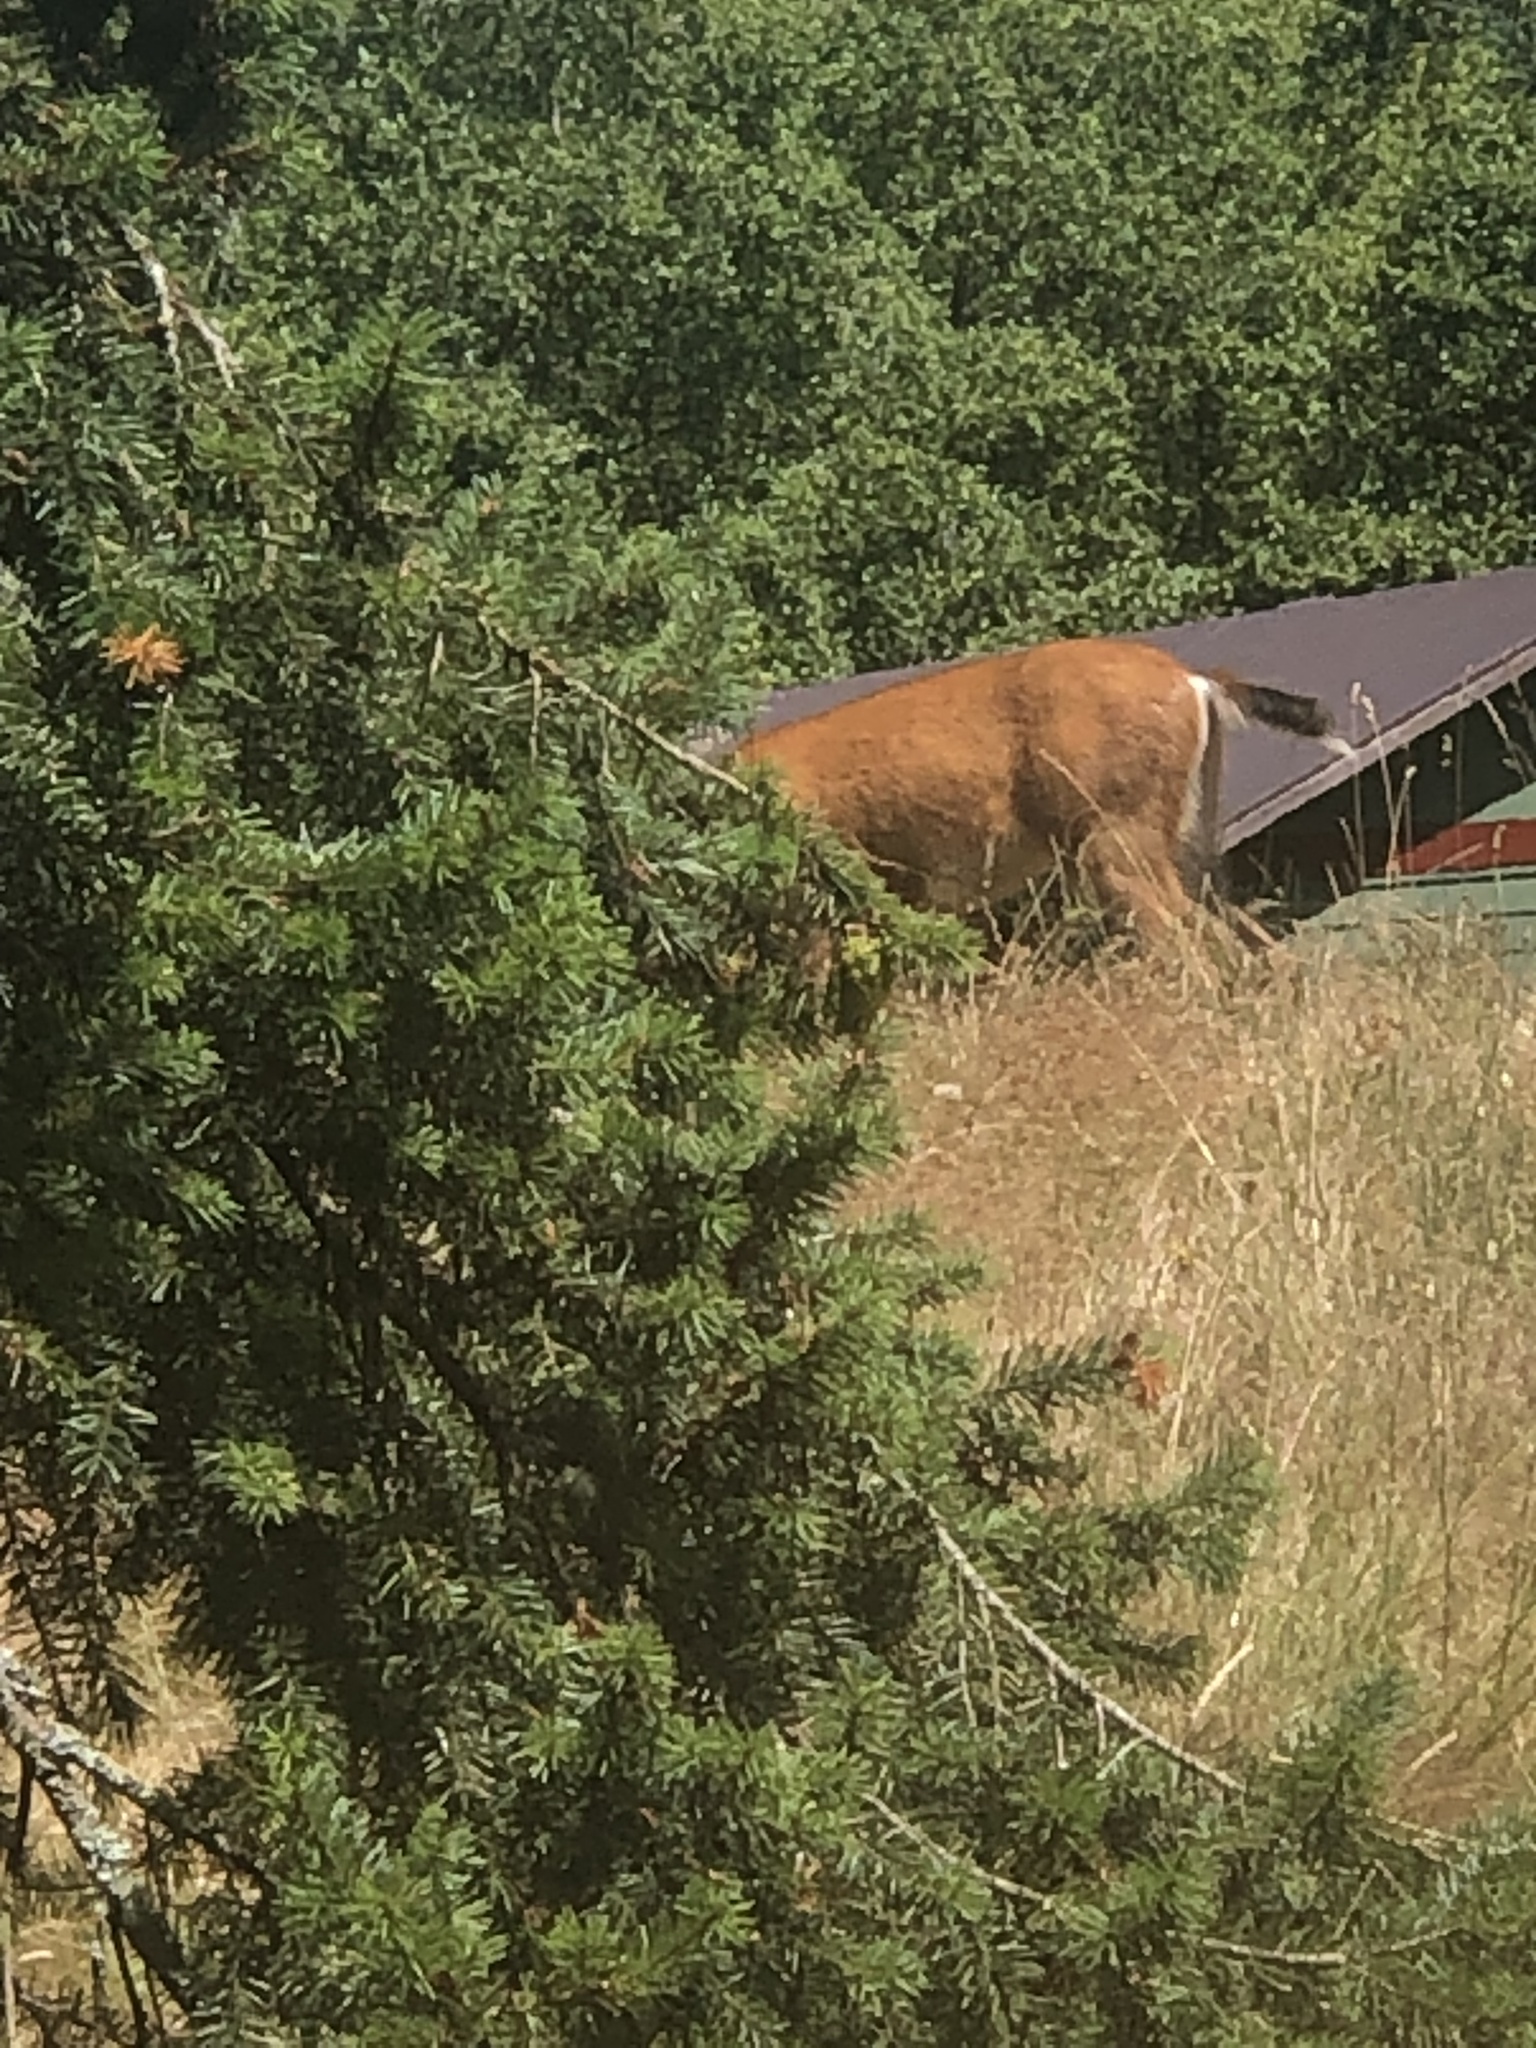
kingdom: Animalia
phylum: Chordata
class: Mammalia
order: Artiodactyla
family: Cervidae
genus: Odocoileus
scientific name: Odocoileus hemionus
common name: Mule deer
